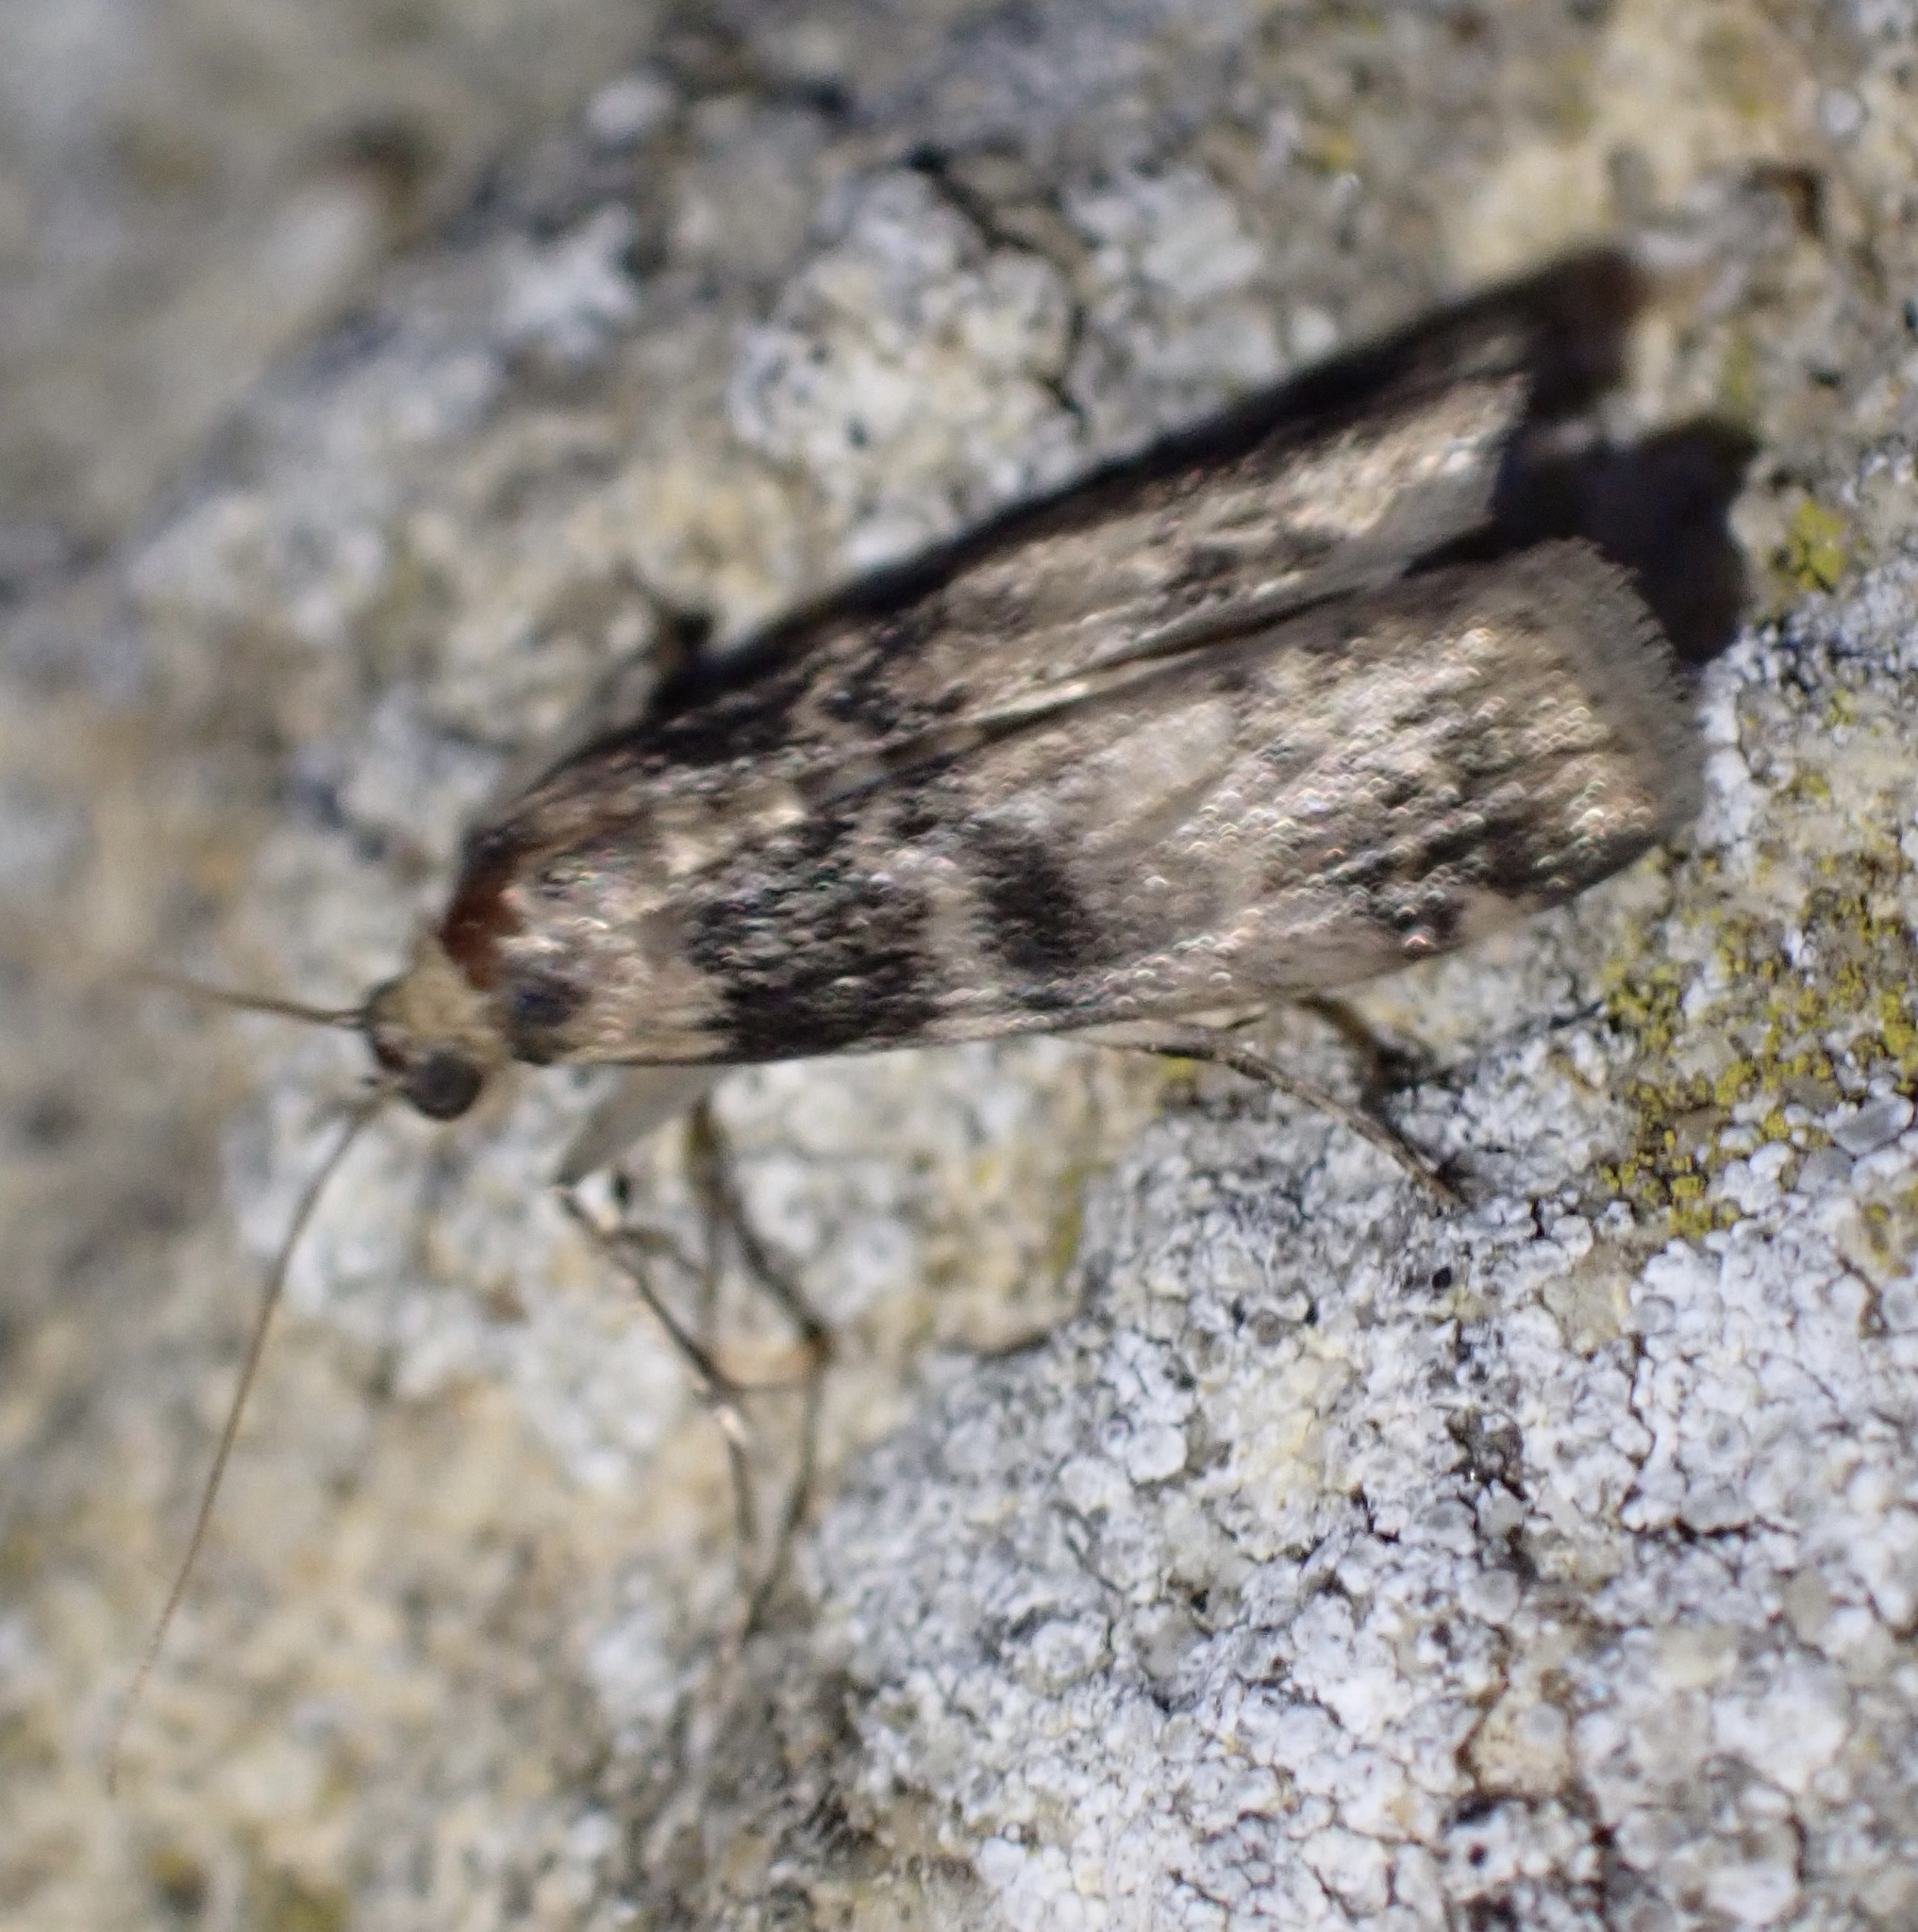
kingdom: Animalia
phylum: Arthropoda
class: Insecta
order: Lepidoptera
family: Pyralidae
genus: Euzophera
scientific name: Euzophera pinguis
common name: Ash-bark knot-horn
